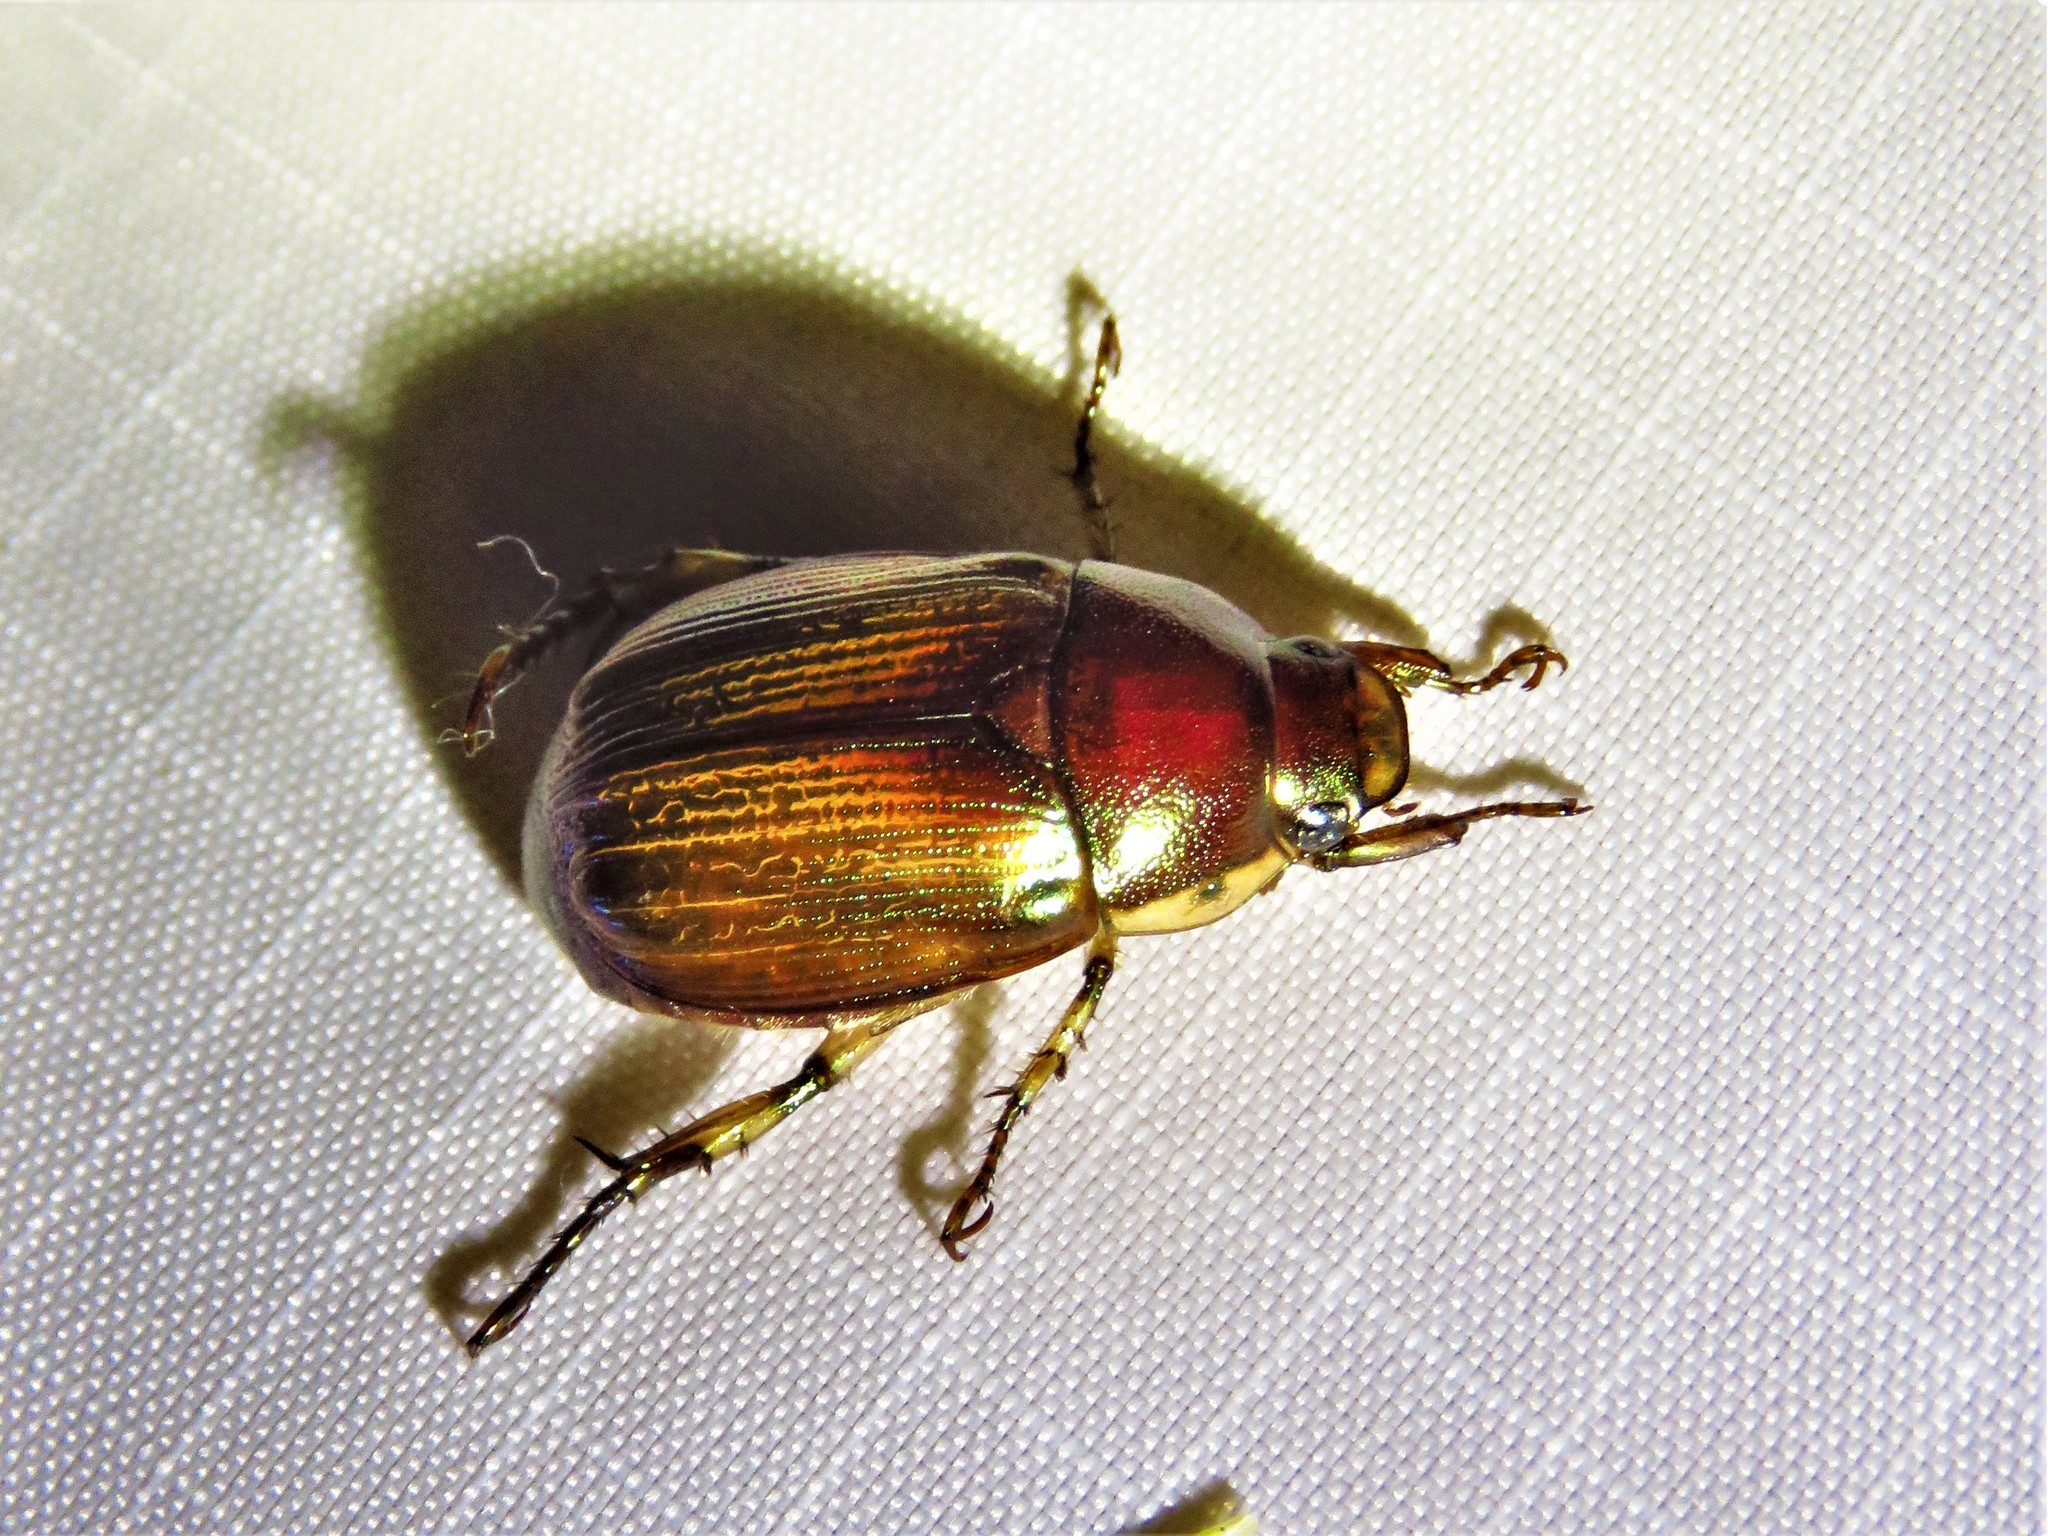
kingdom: Animalia
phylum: Arthropoda
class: Insecta
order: Coleoptera
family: Scarabaeidae
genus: Callistethus
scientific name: Callistethus marginatus
